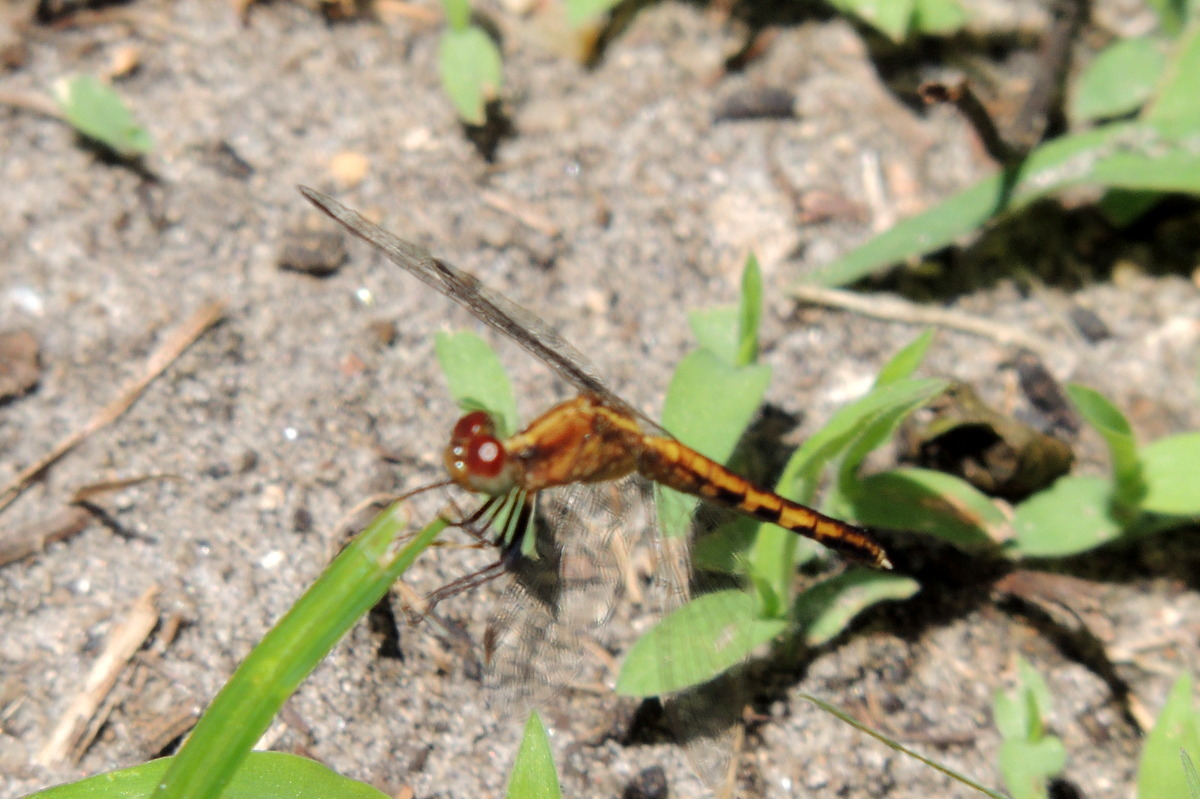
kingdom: Animalia
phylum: Arthropoda
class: Insecta
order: Odonata
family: Libellulidae
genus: Erythrodiplax
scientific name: Erythrodiplax minuscula
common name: Little blue dragonlet
